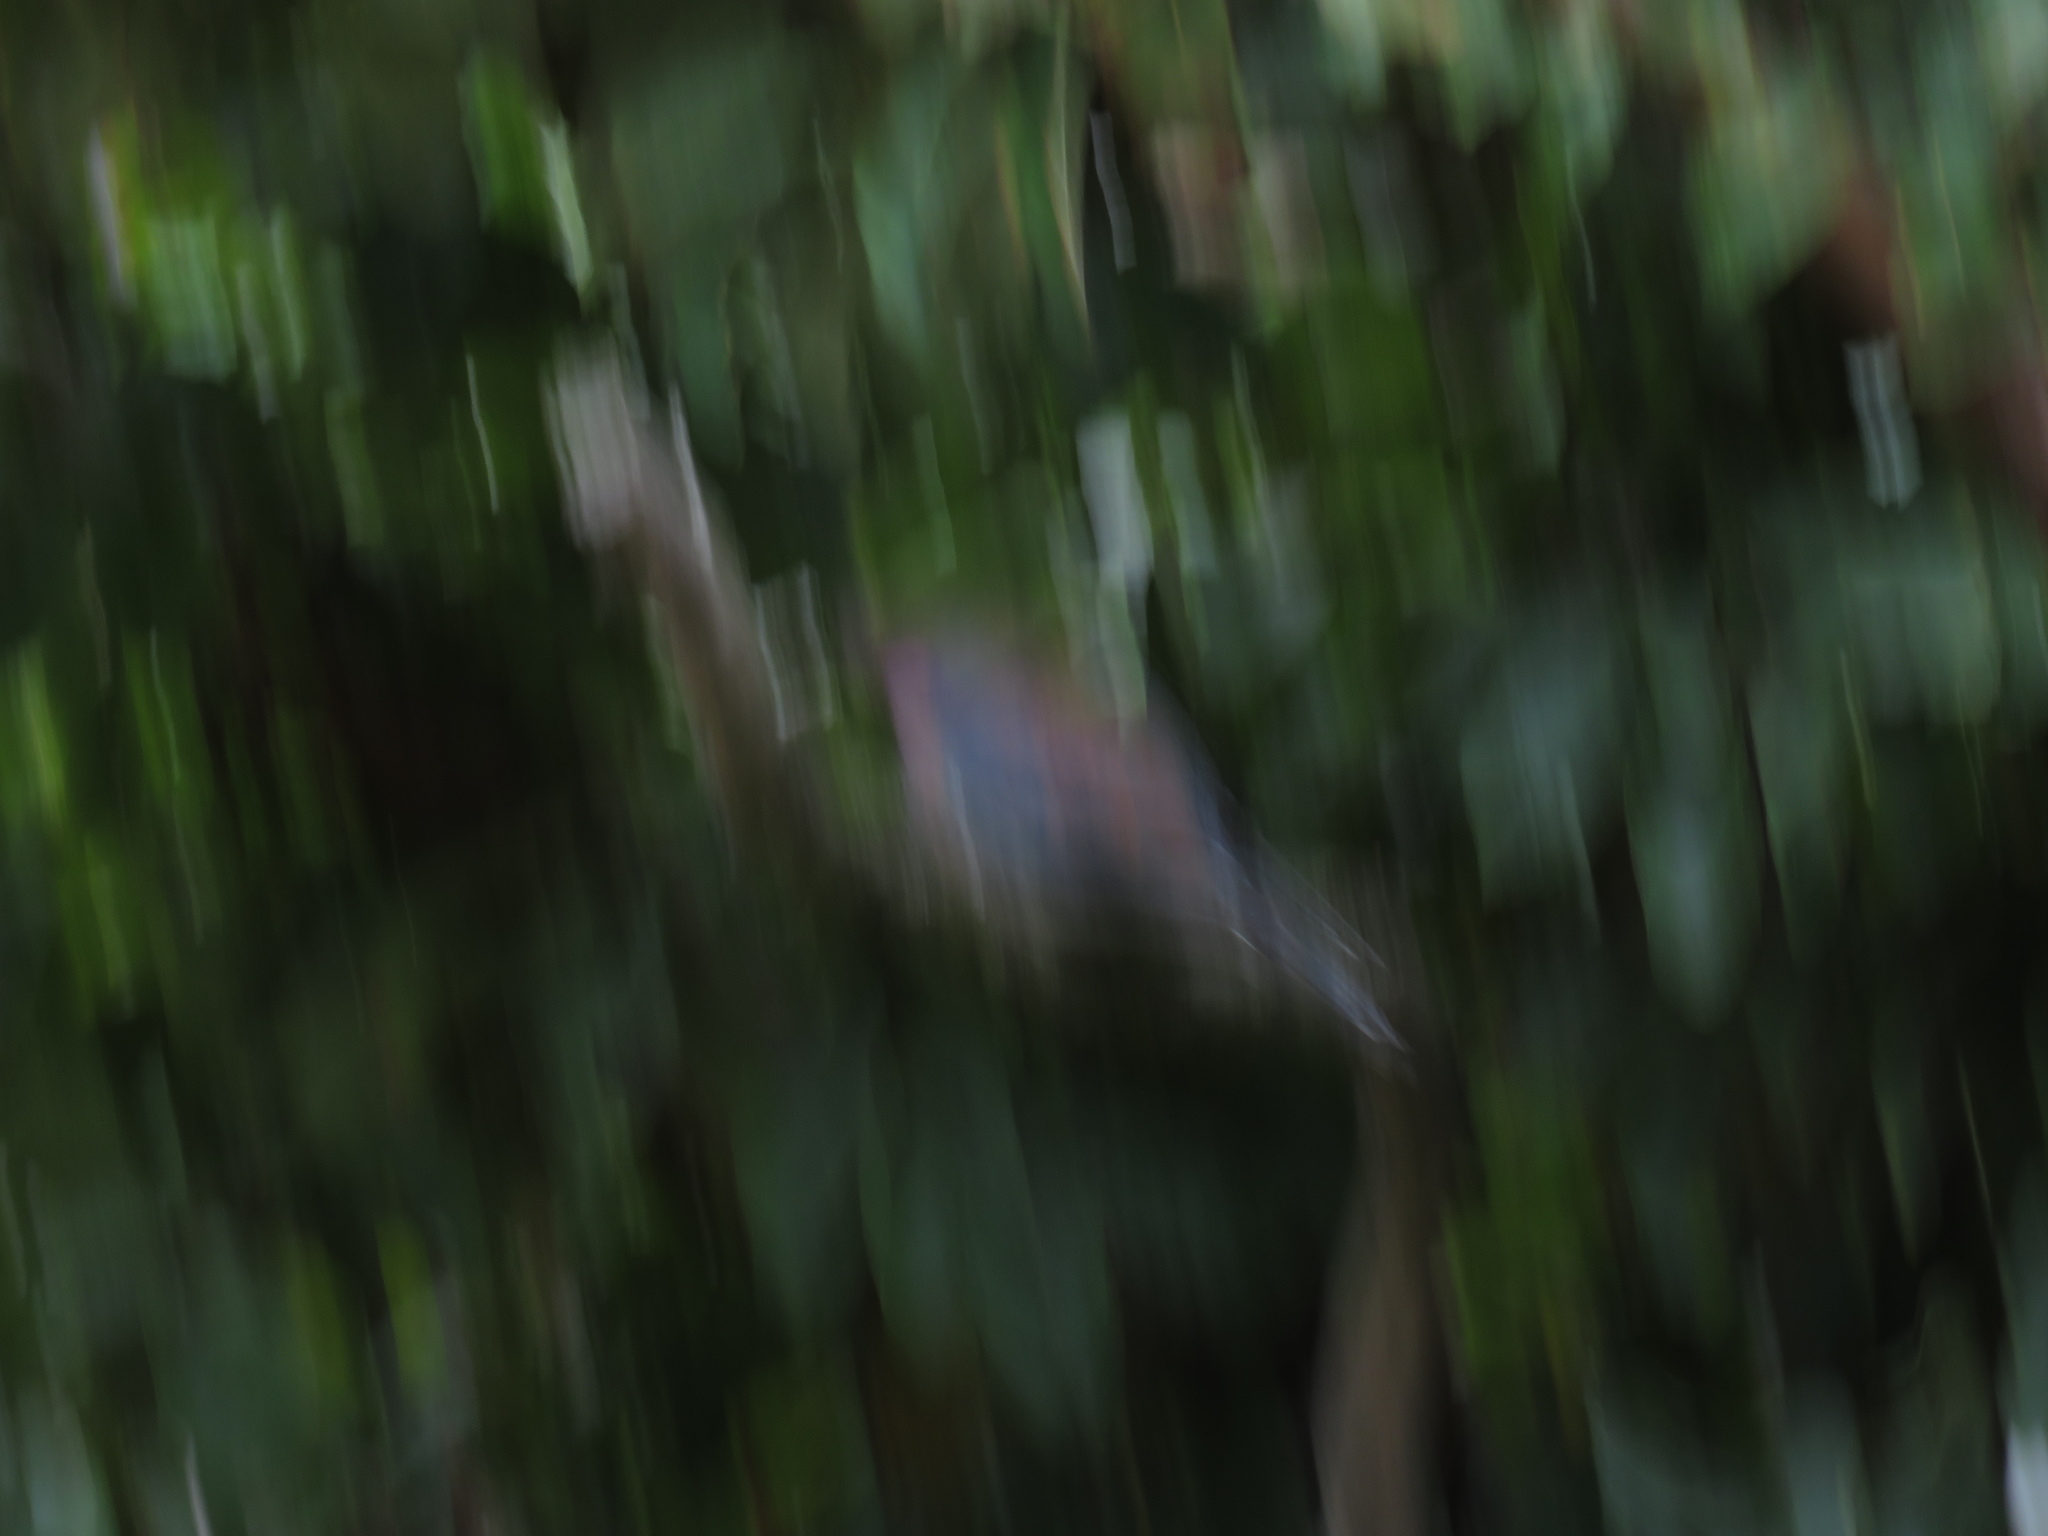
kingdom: Animalia
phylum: Chordata
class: Aves
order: Columbiformes
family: Columbidae
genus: Spilopelia
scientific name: Spilopelia senegalensis
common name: Laughing dove
